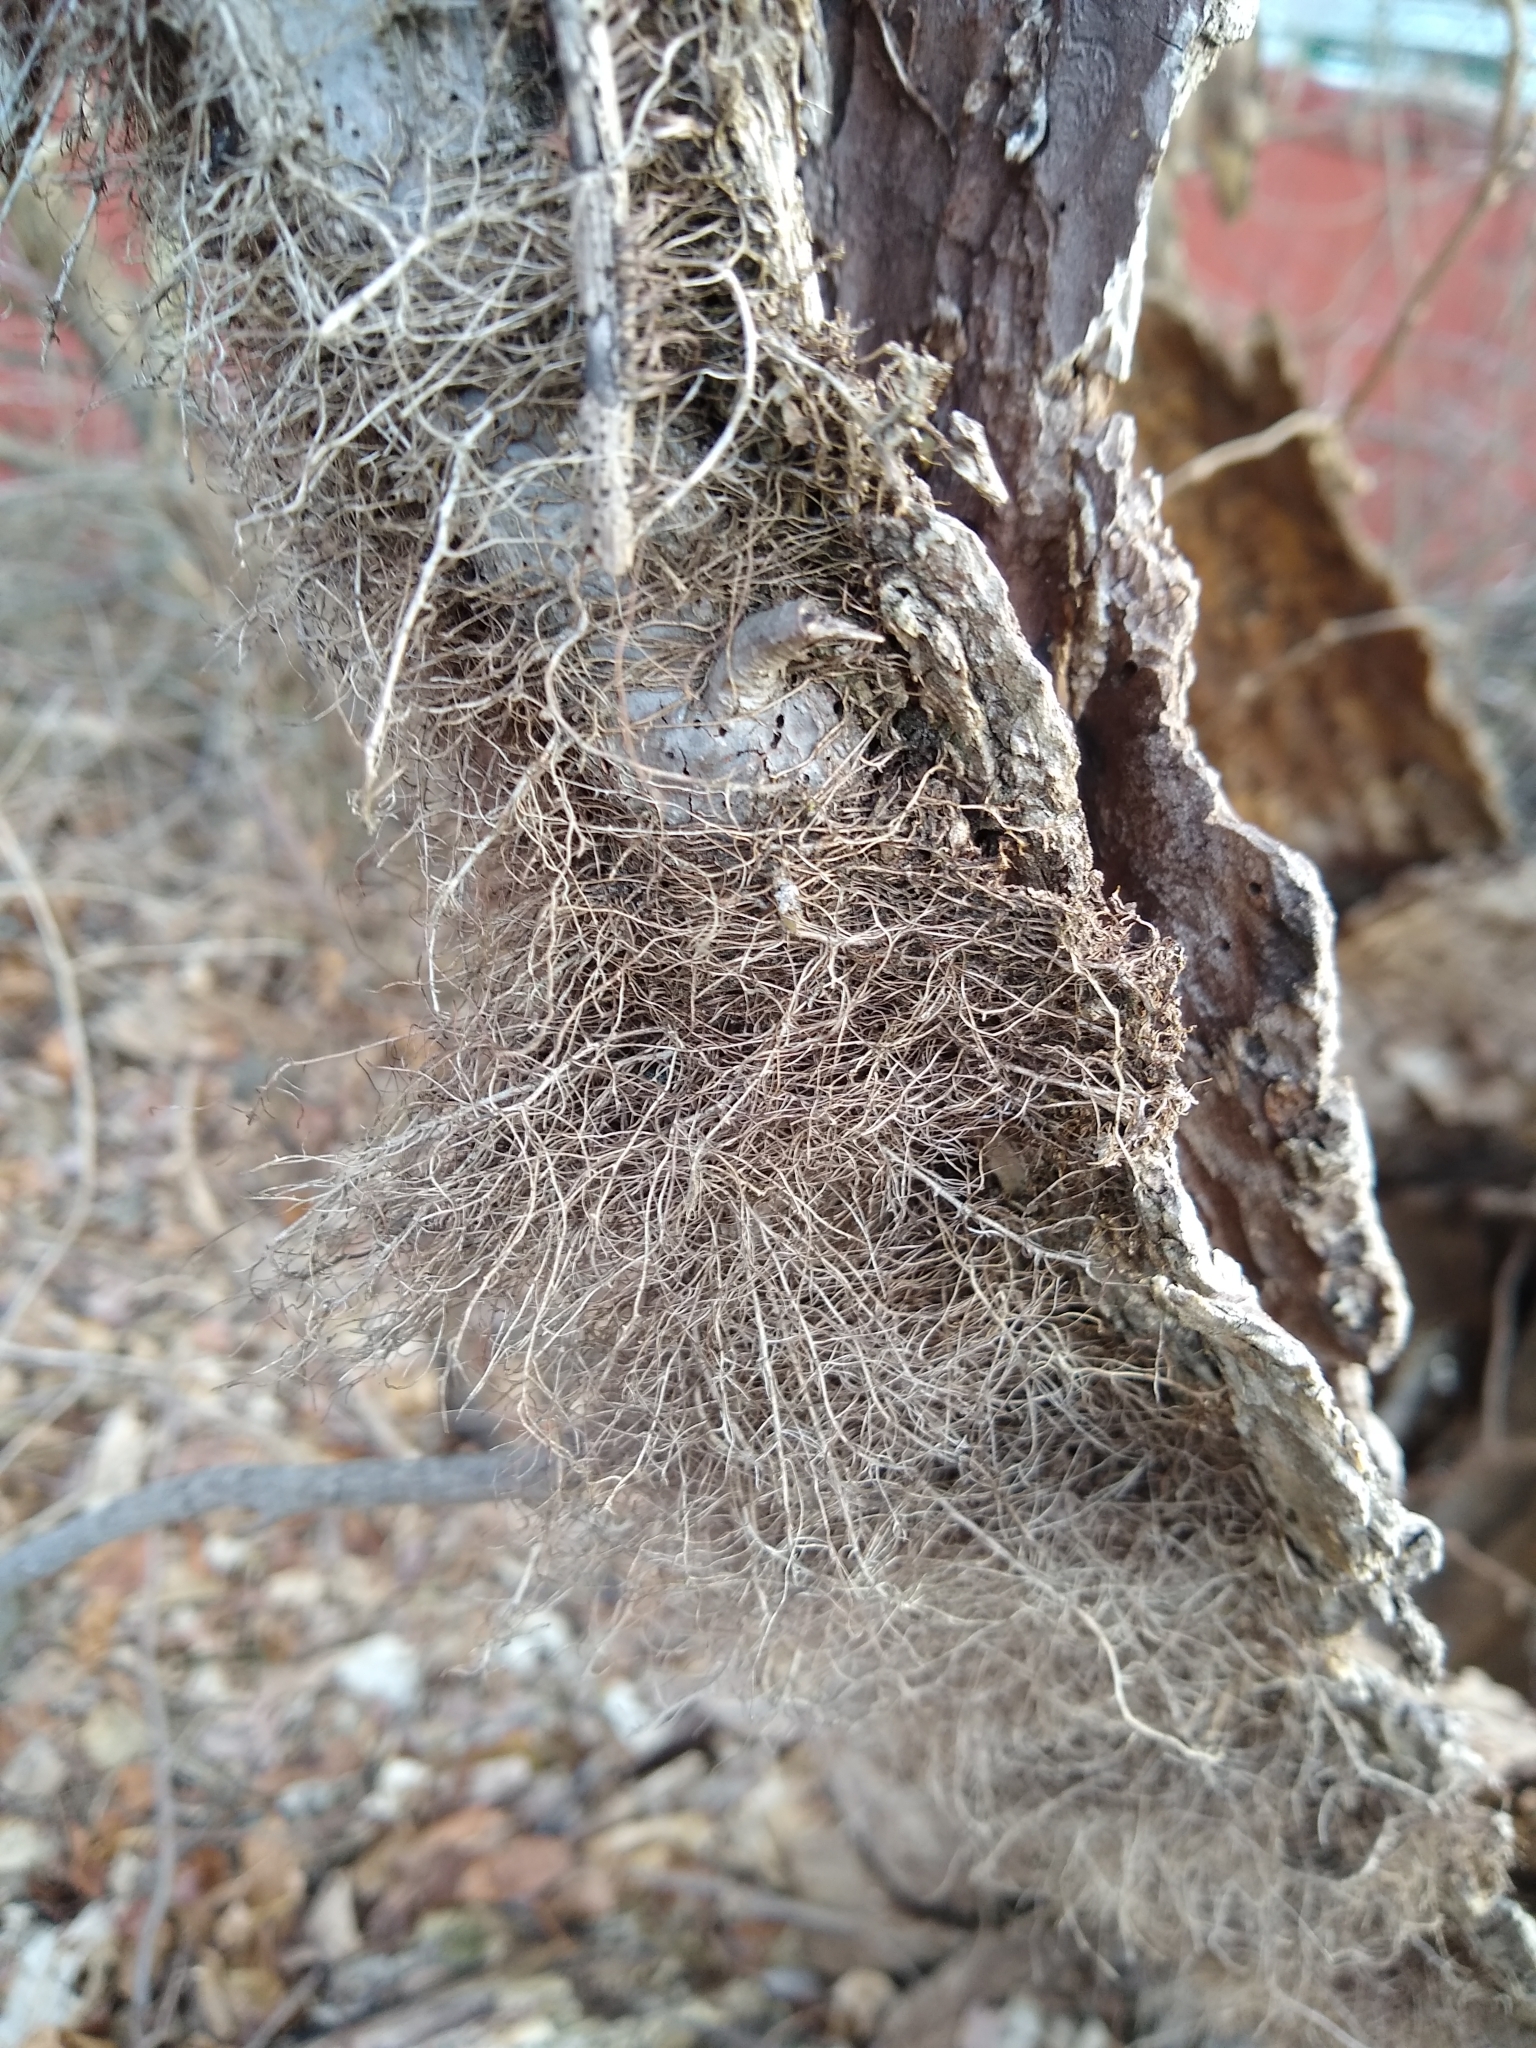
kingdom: Plantae
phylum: Tracheophyta
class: Magnoliopsida
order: Sapindales
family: Anacardiaceae
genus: Toxicodendron
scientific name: Toxicodendron radicans
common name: Poison ivy
